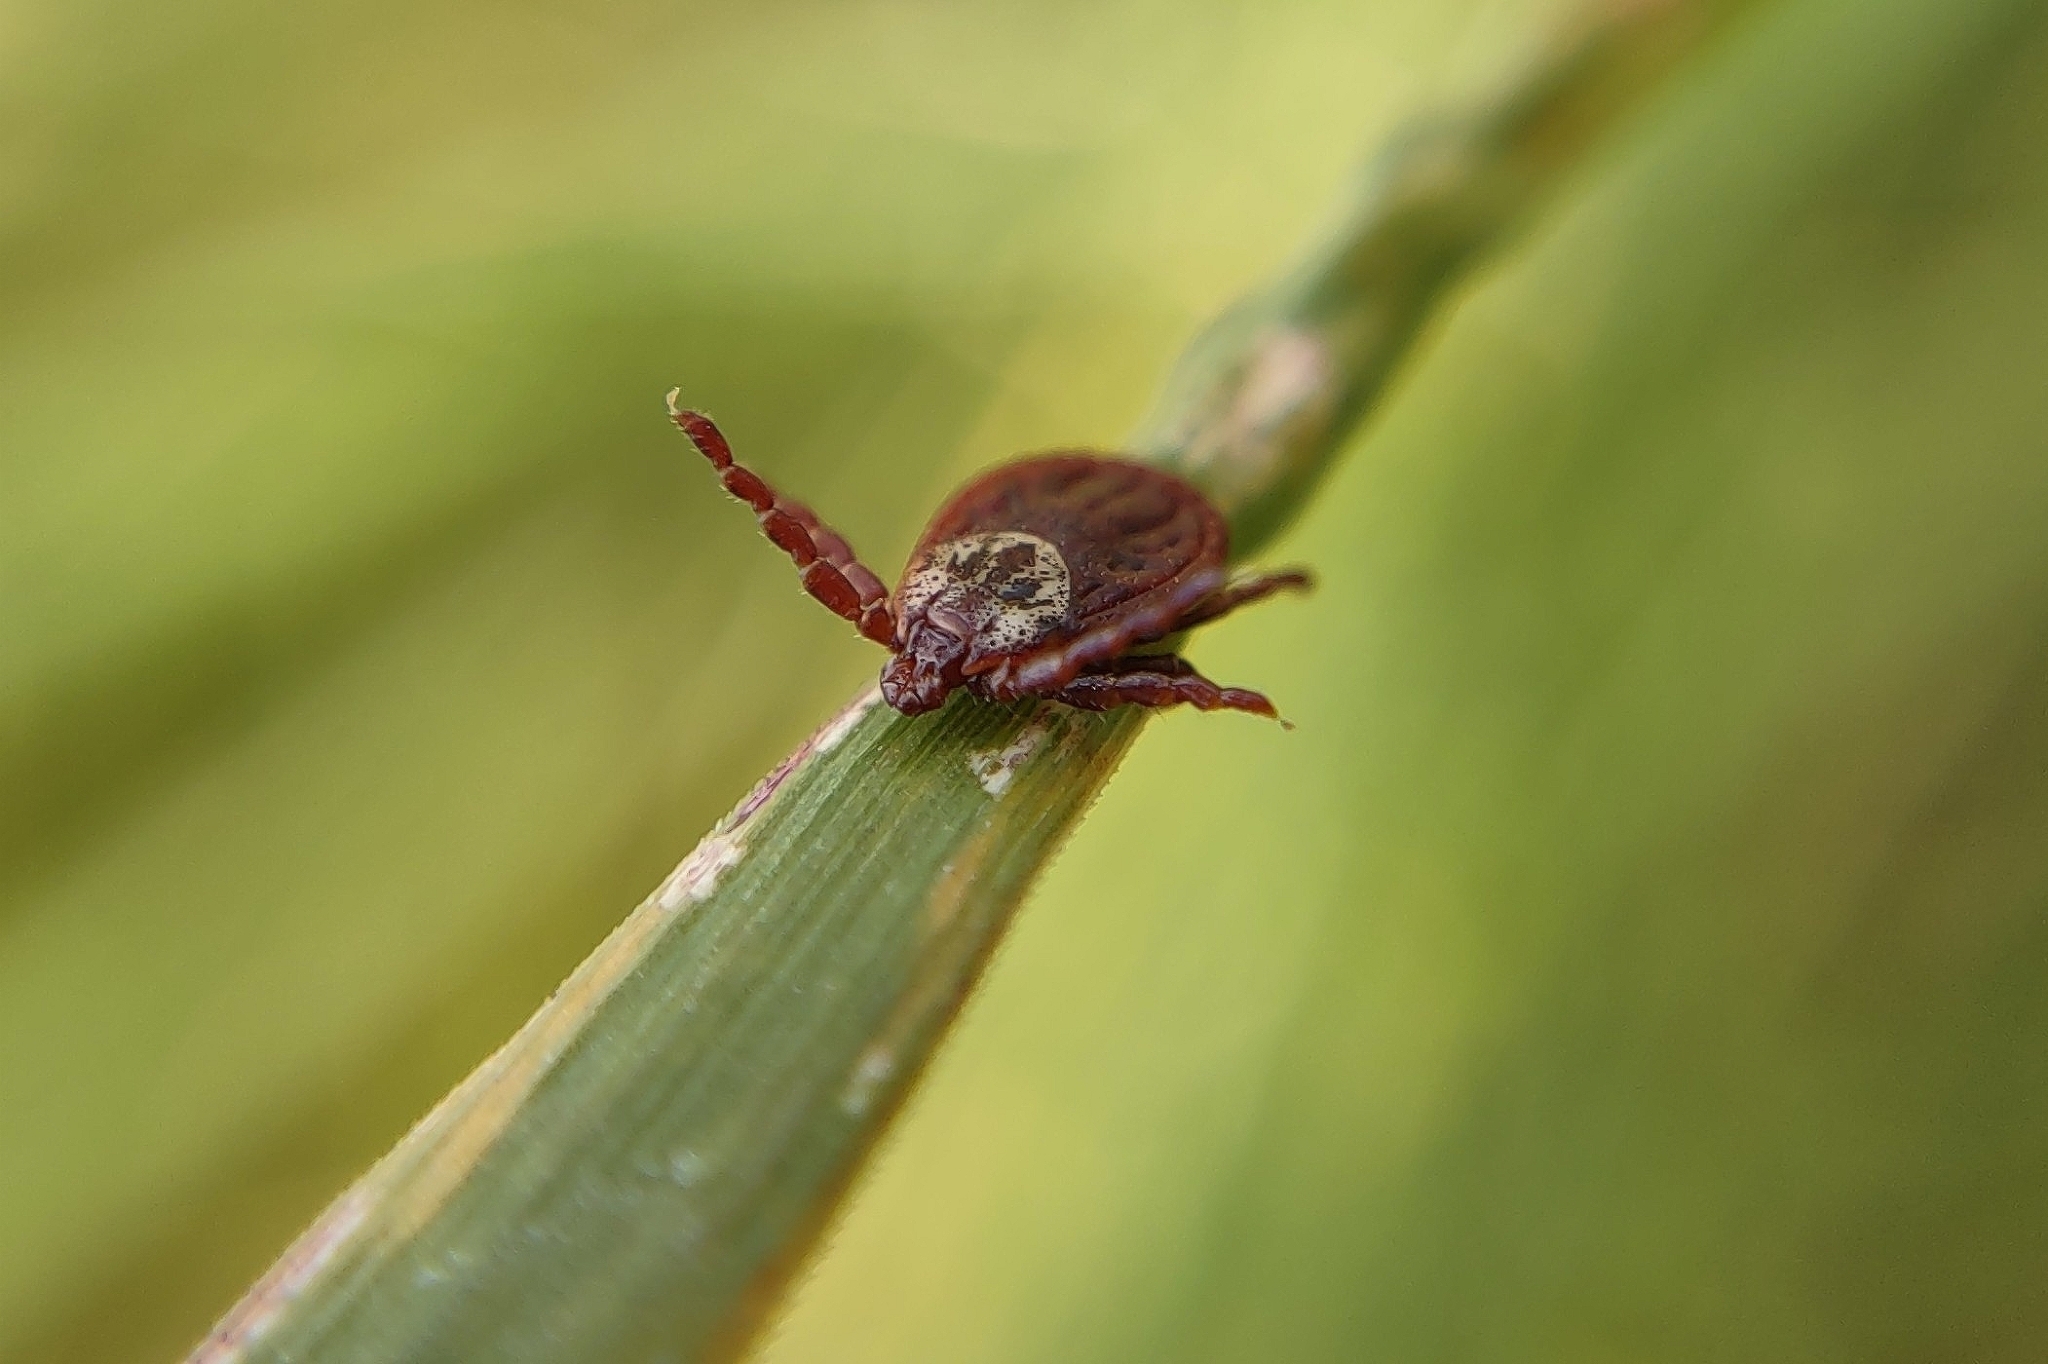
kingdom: Animalia
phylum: Arthropoda
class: Arachnida
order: Ixodida
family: Ixodidae
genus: Dermacentor
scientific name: Dermacentor reticulatus
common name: Ornate cow tick
